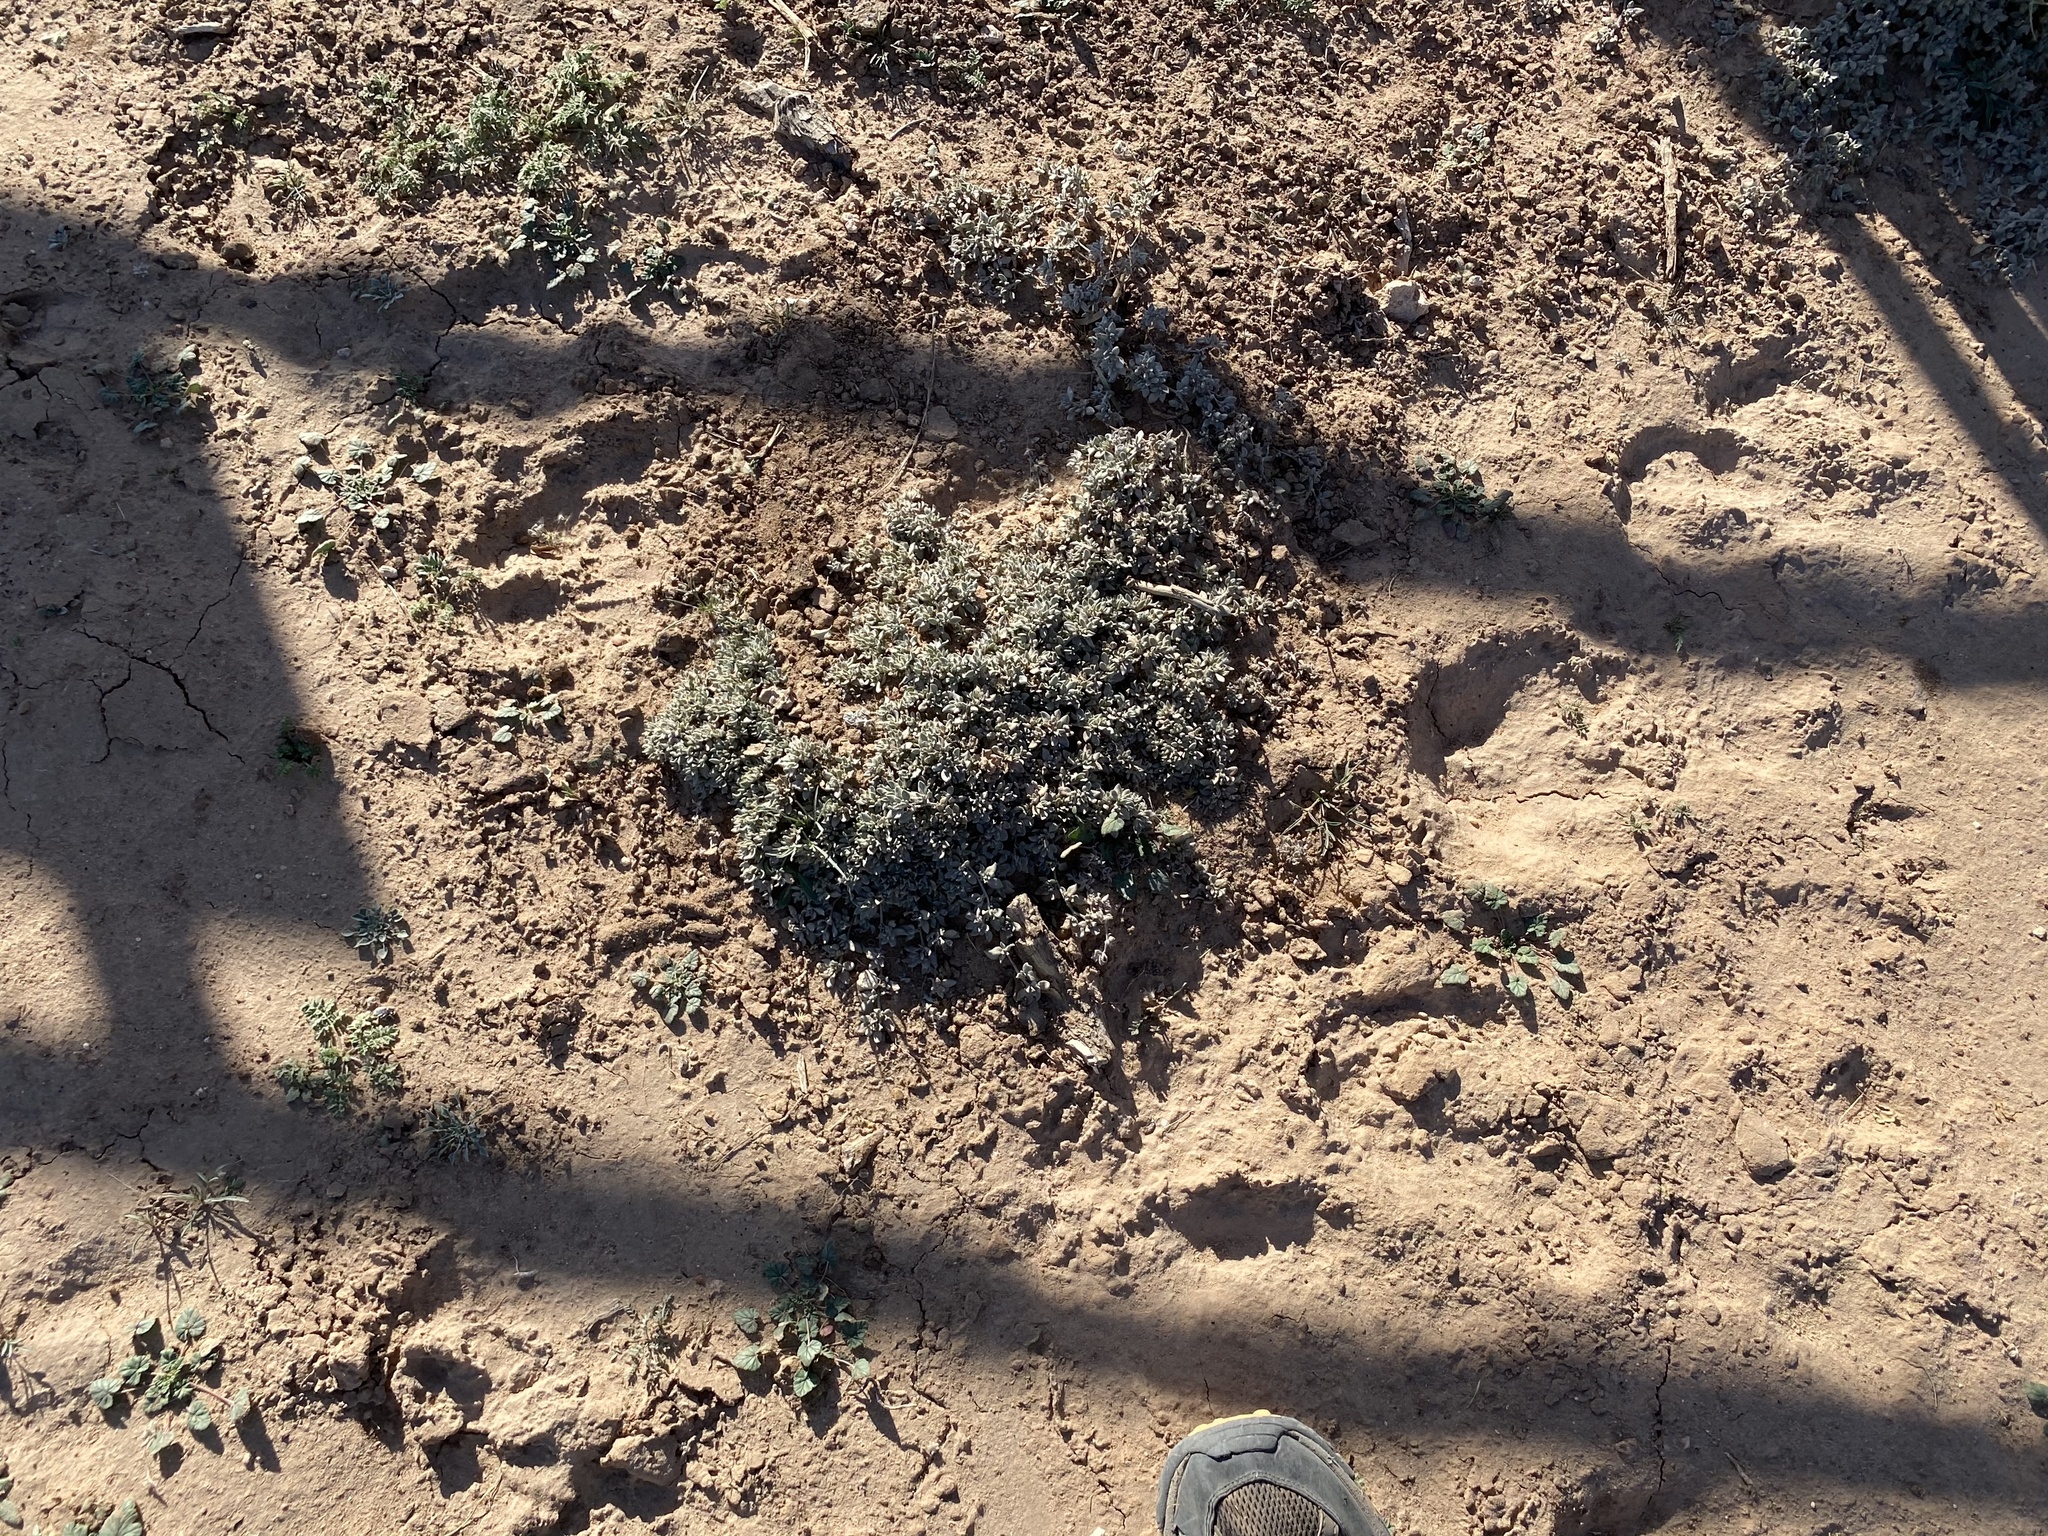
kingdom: Plantae
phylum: Tracheophyta
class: Magnoliopsida
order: Boraginales
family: Ehretiaceae
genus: Tiquilia
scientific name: Tiquilia canescens
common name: Hairy tiquilia
